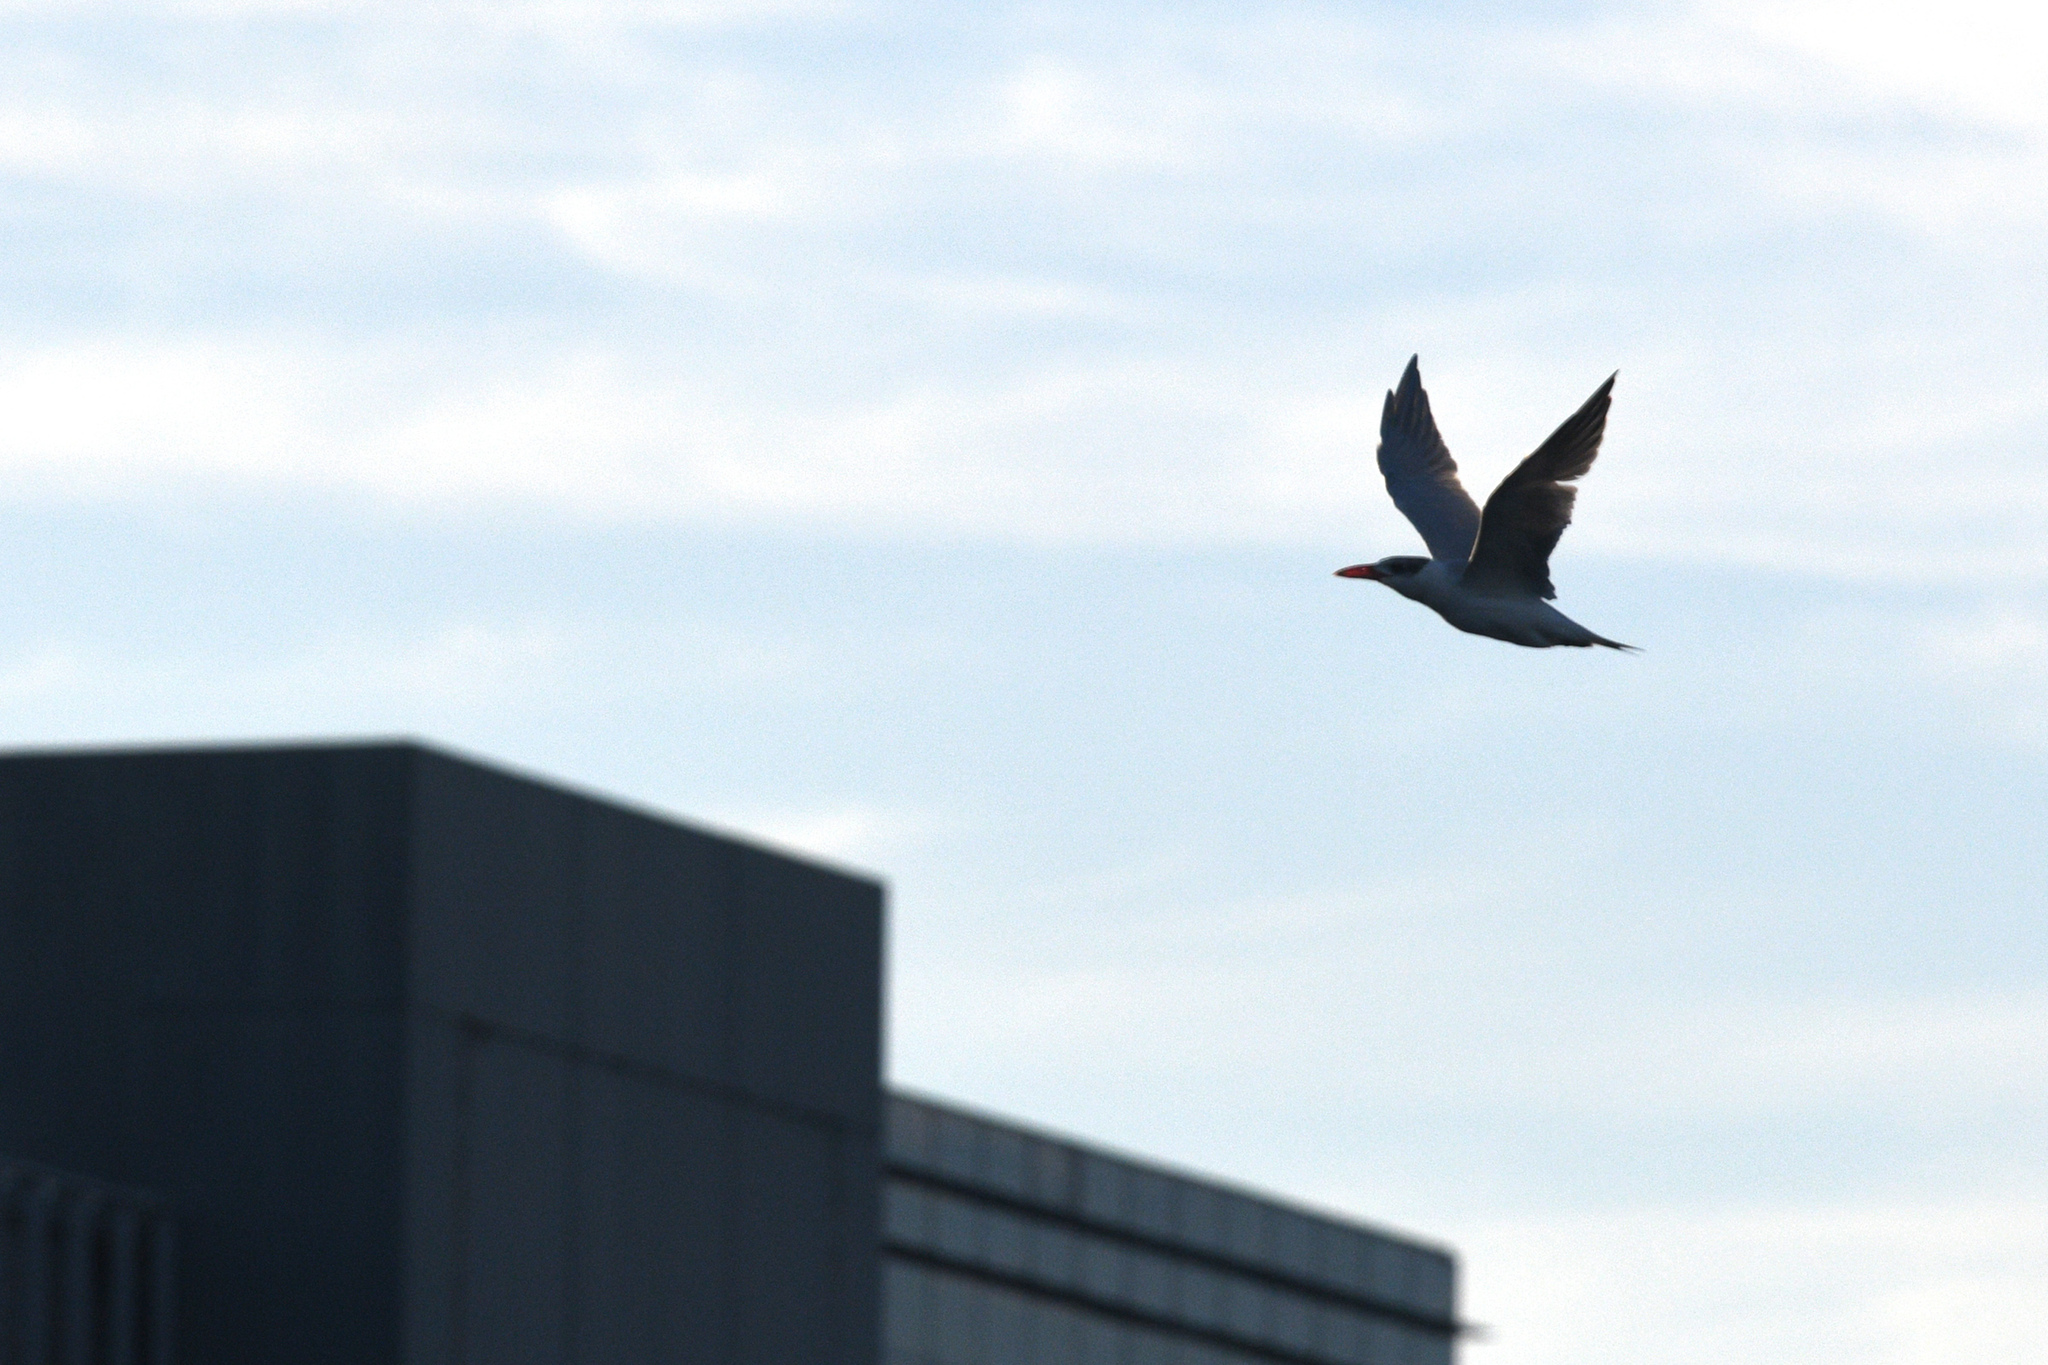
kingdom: Animalia
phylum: Chordata
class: Aves
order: Charadriiformes
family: Laridae
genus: Hydroprogne
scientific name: Hydroprogne caspia
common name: Caspian tern
